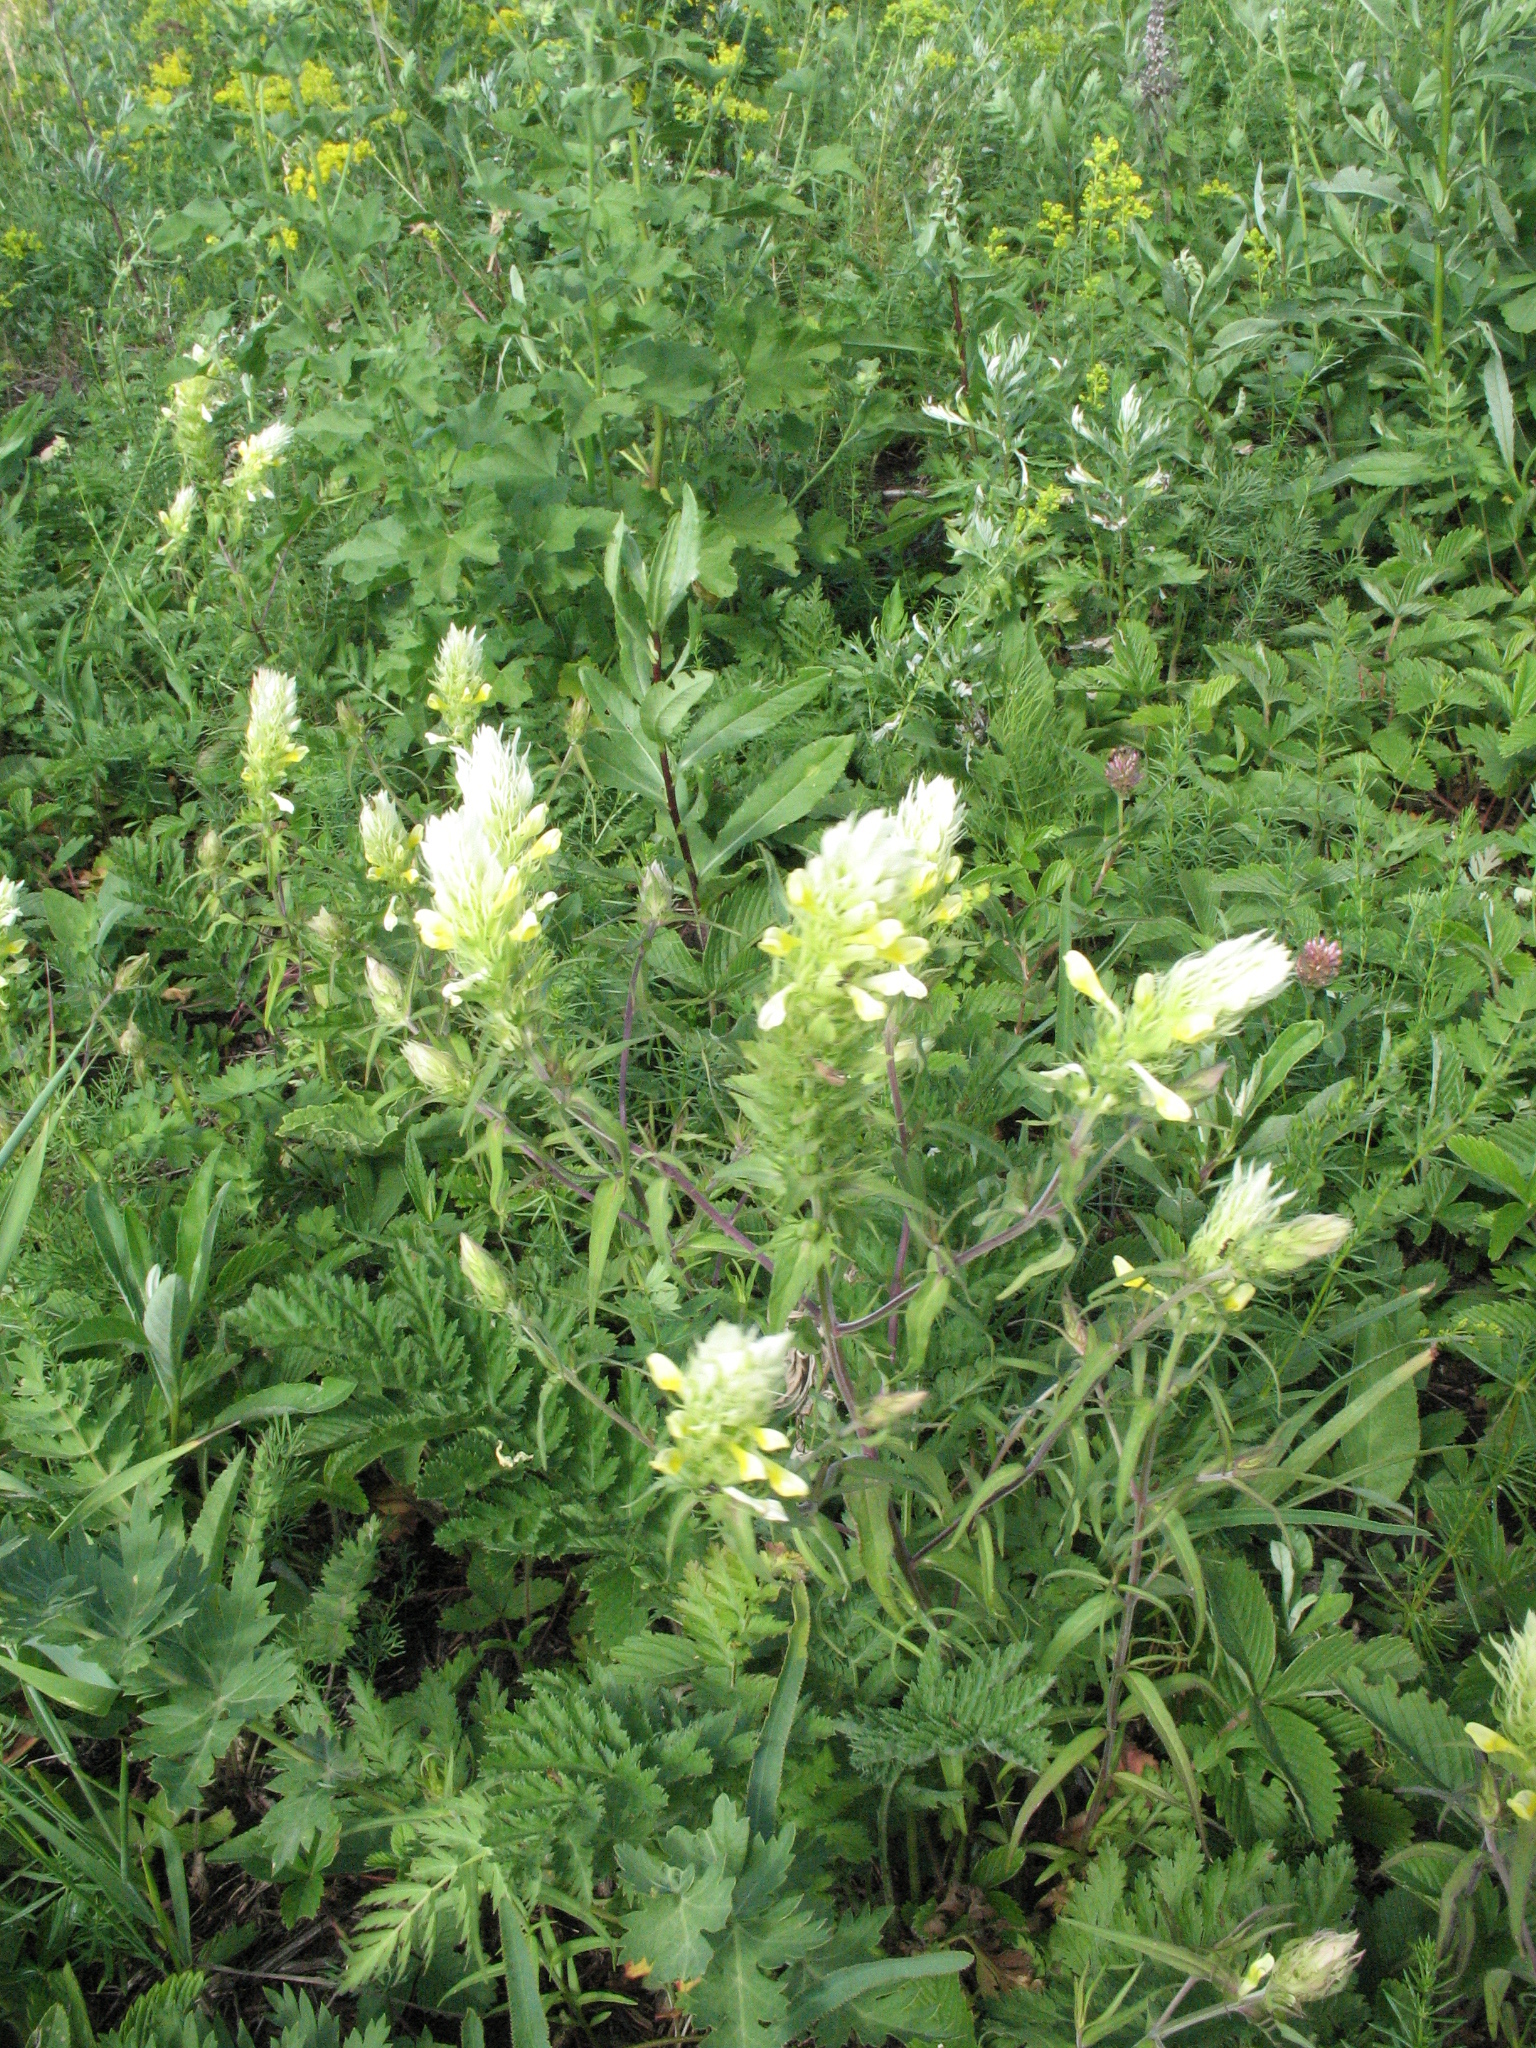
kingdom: Plantae
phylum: Tracheophyta
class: Magnoliopsida
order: Lamiales
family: Orobanchaceae
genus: Melampyrum
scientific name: Melampyrum arvense
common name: Field cow-wheat
